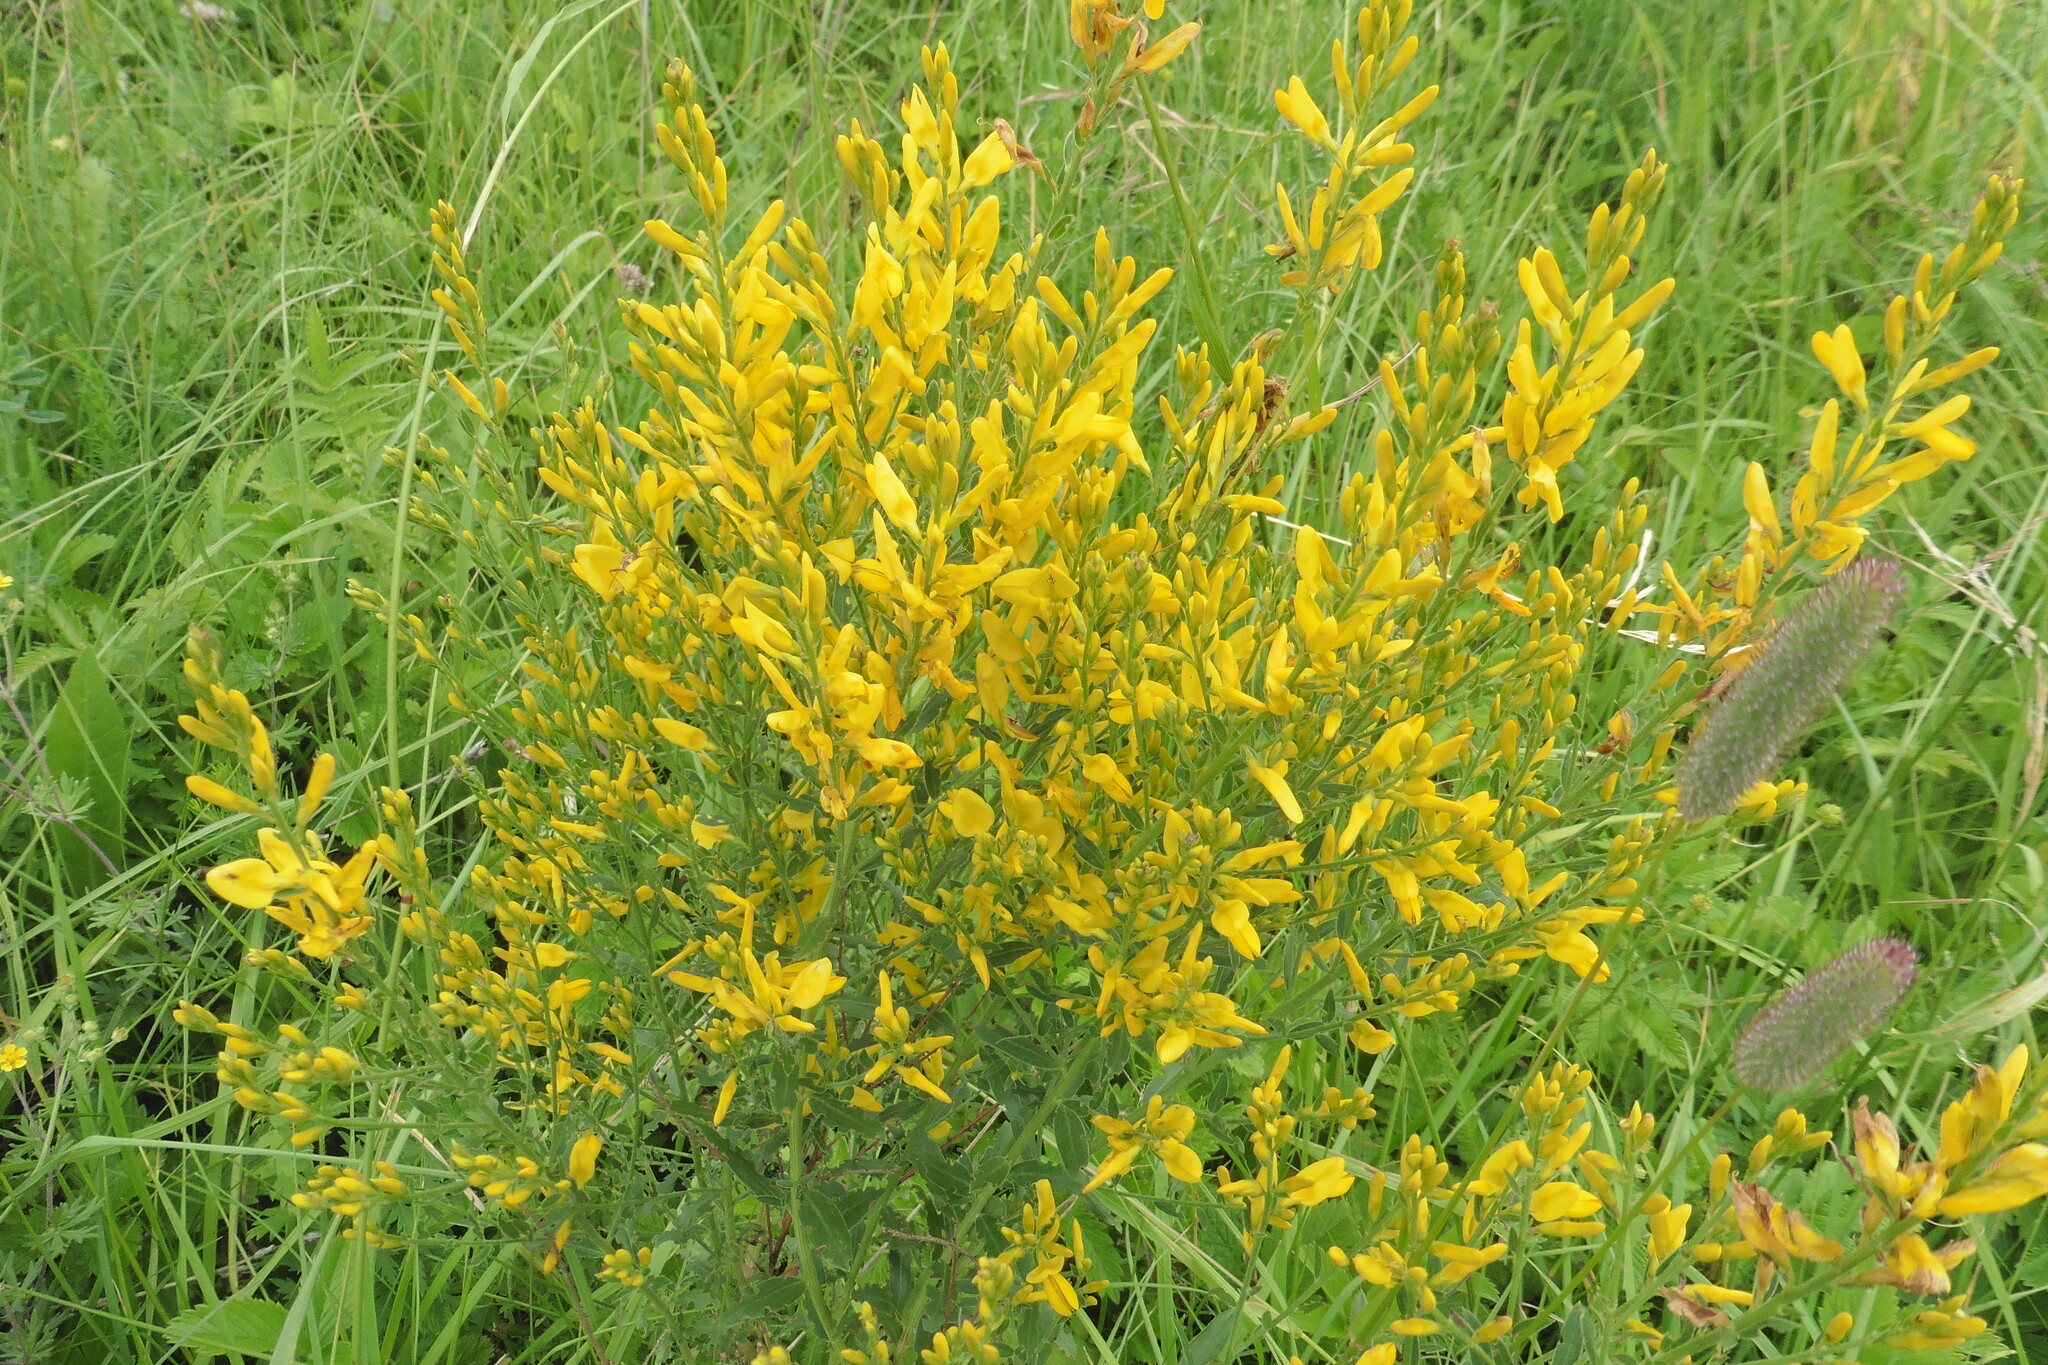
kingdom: Plantae
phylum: Tracheophyta
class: Magnoliopsida
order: Fabales
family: Fabaceae
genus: Genista
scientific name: Genista tinctoria
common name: Dyer's greenweed
